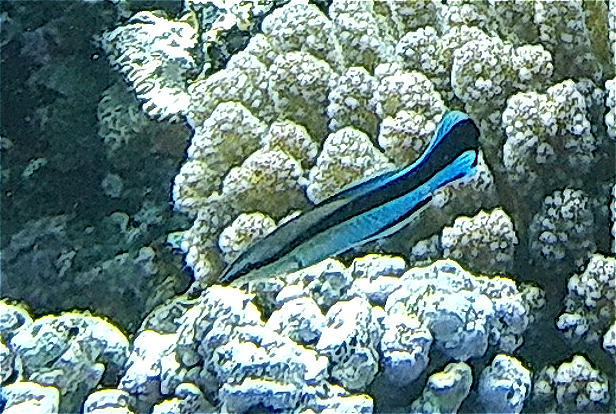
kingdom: Animalia
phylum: Chordata
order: Perciformes
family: Labridae
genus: Labroides
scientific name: Labroides dimidiatus
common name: Blue diesel wrasse
